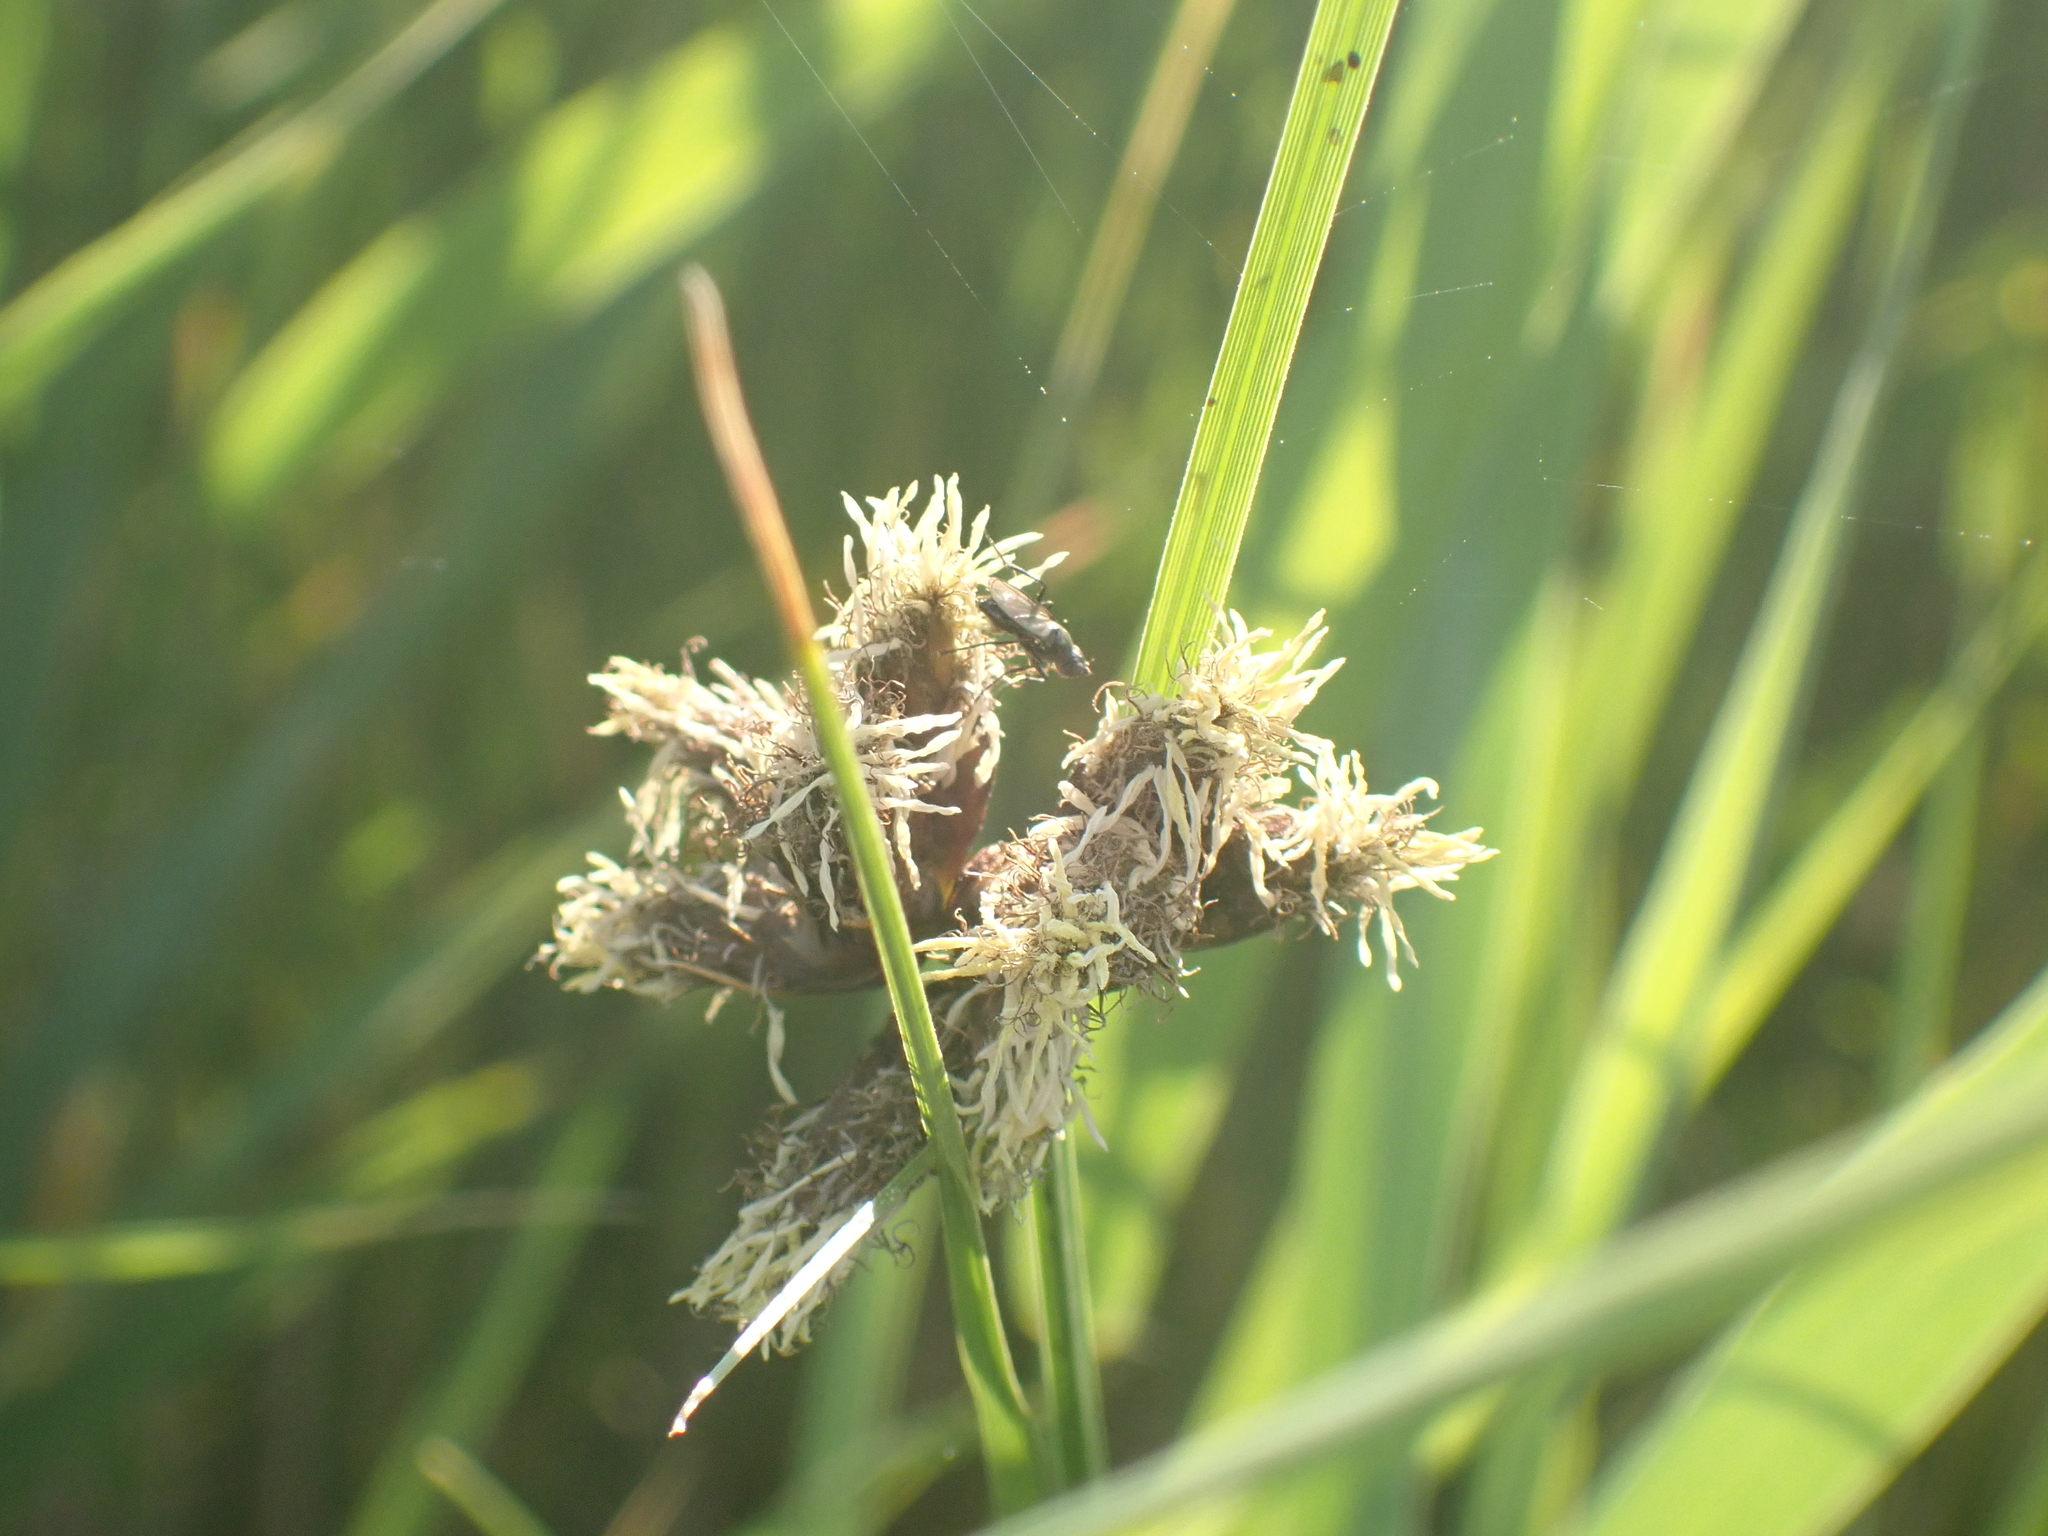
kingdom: Plantae
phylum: Tracheophyta
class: Liliopsida
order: Poales
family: Cyperaceae
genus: Bolboschoenus
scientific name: Bolboschoenus maritimus
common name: Sea club-rush
